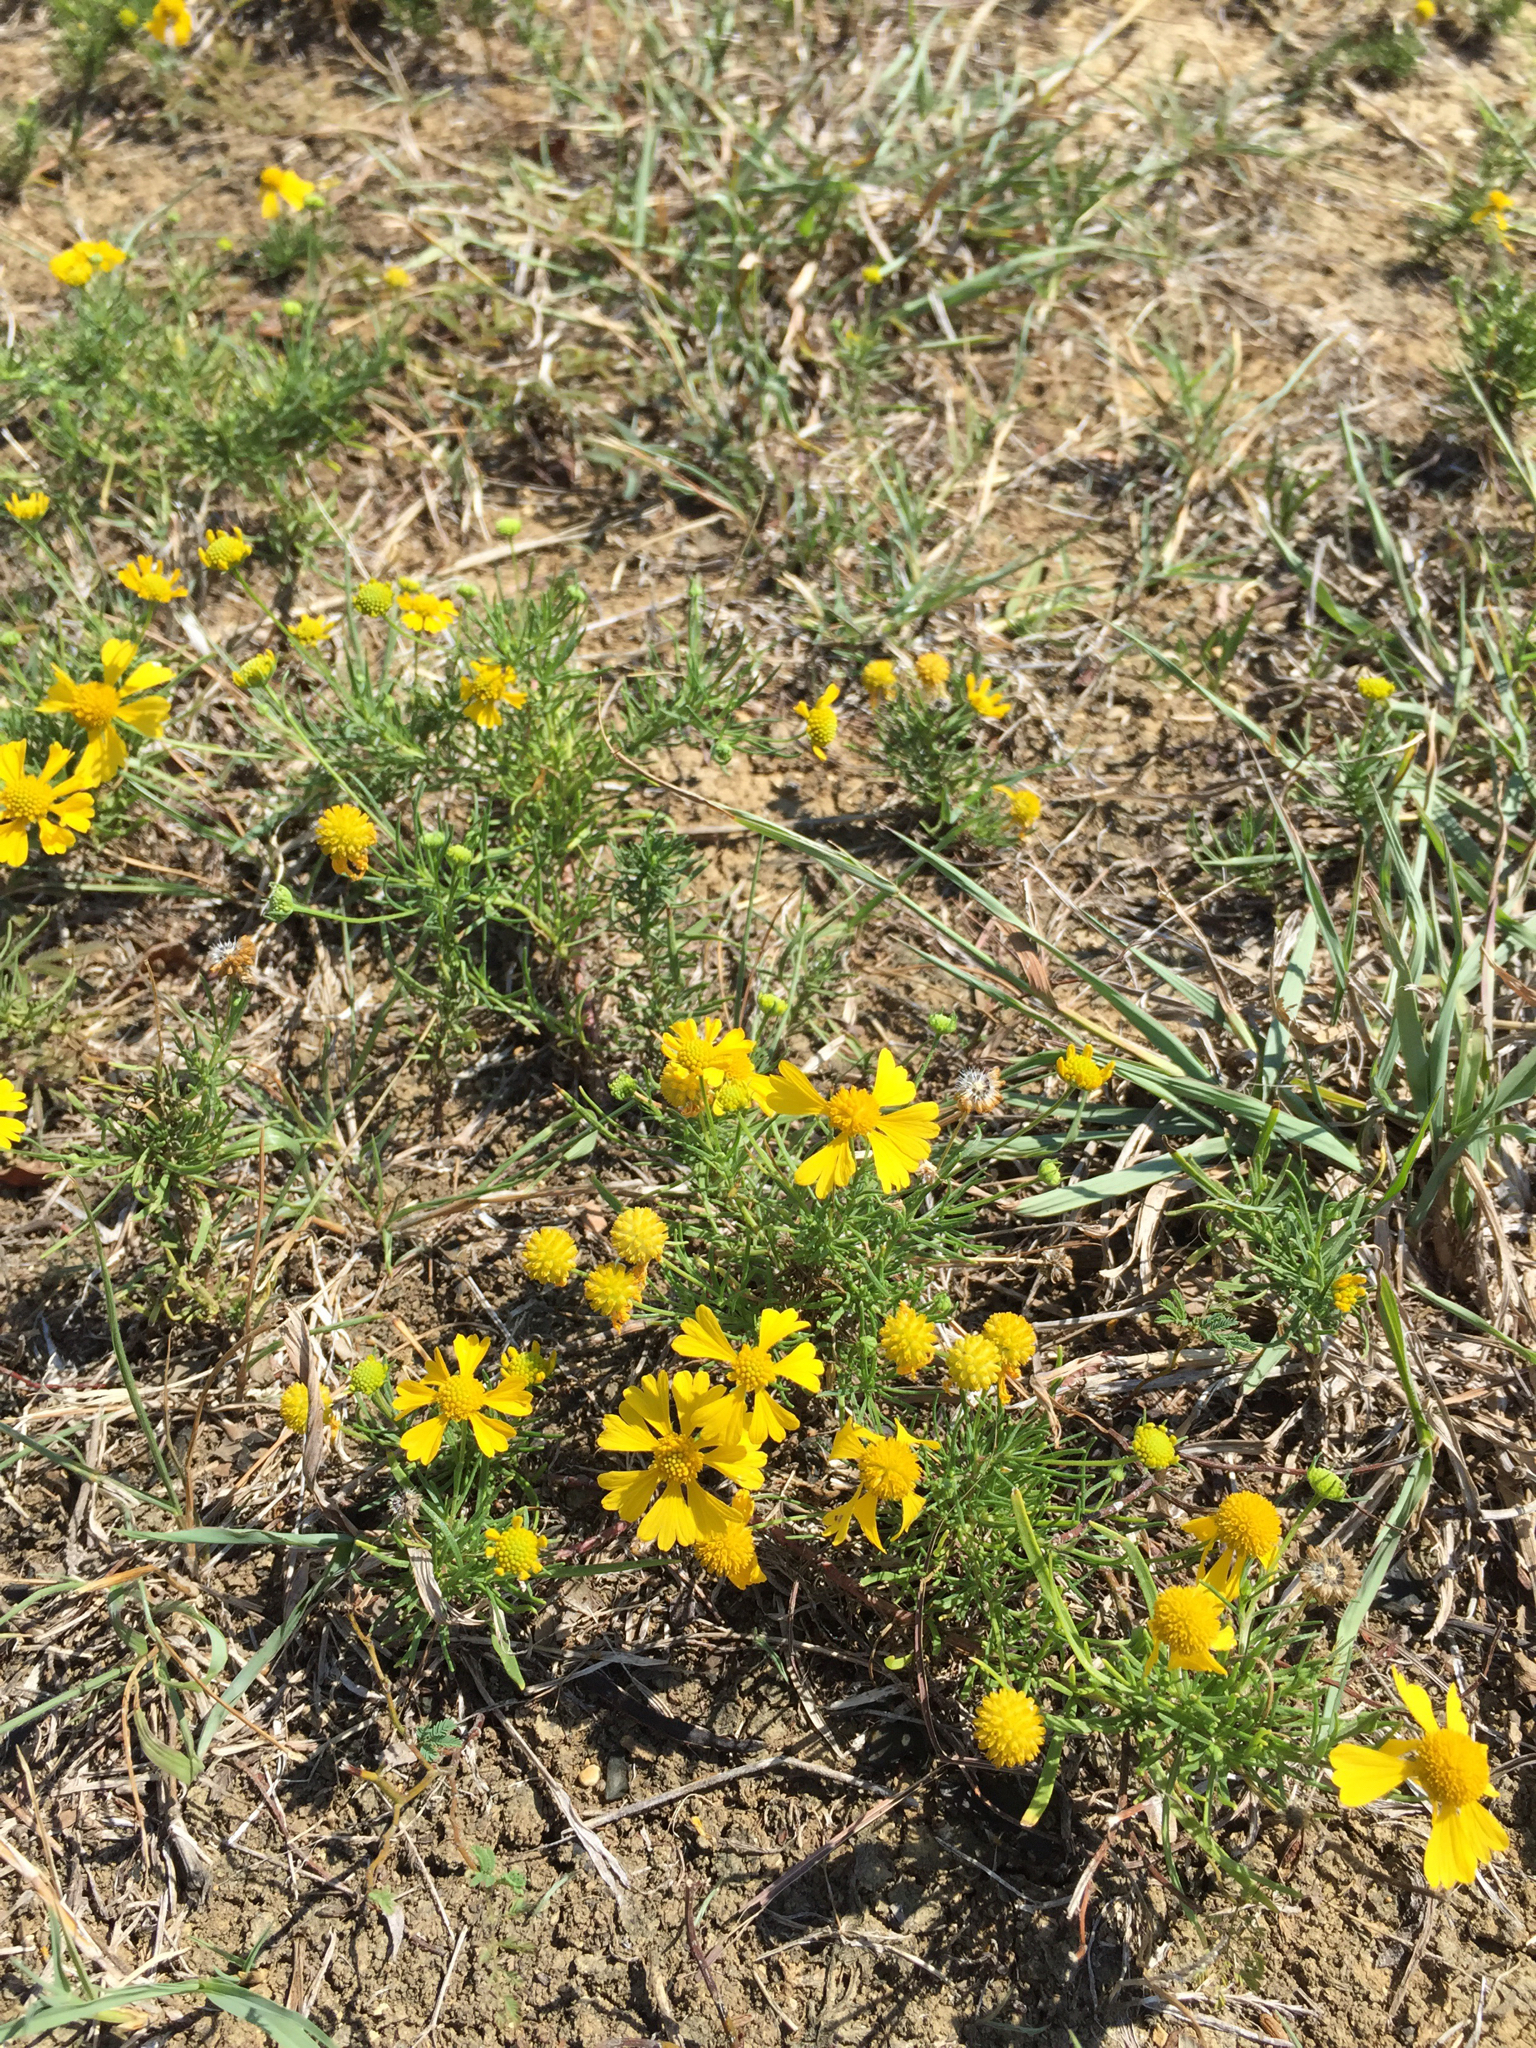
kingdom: Plantae
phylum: Tracheophyta
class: Magnoliopsida
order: Asterales
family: Asteraceae
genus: Helenium
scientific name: Helenium amarum
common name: Bitter sneezeweed
